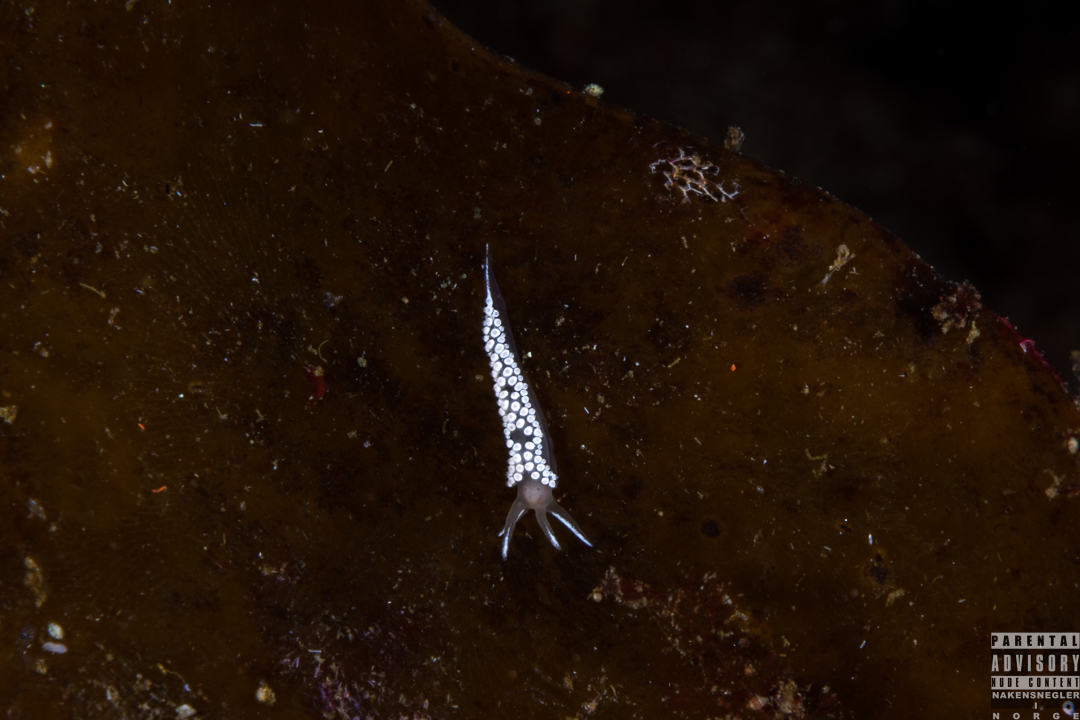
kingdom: Animalia
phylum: Mollusca
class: Gastropoda
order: Nudibranchia
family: Coryphellidae
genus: Coryphella
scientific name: Coryphella verrucosa
